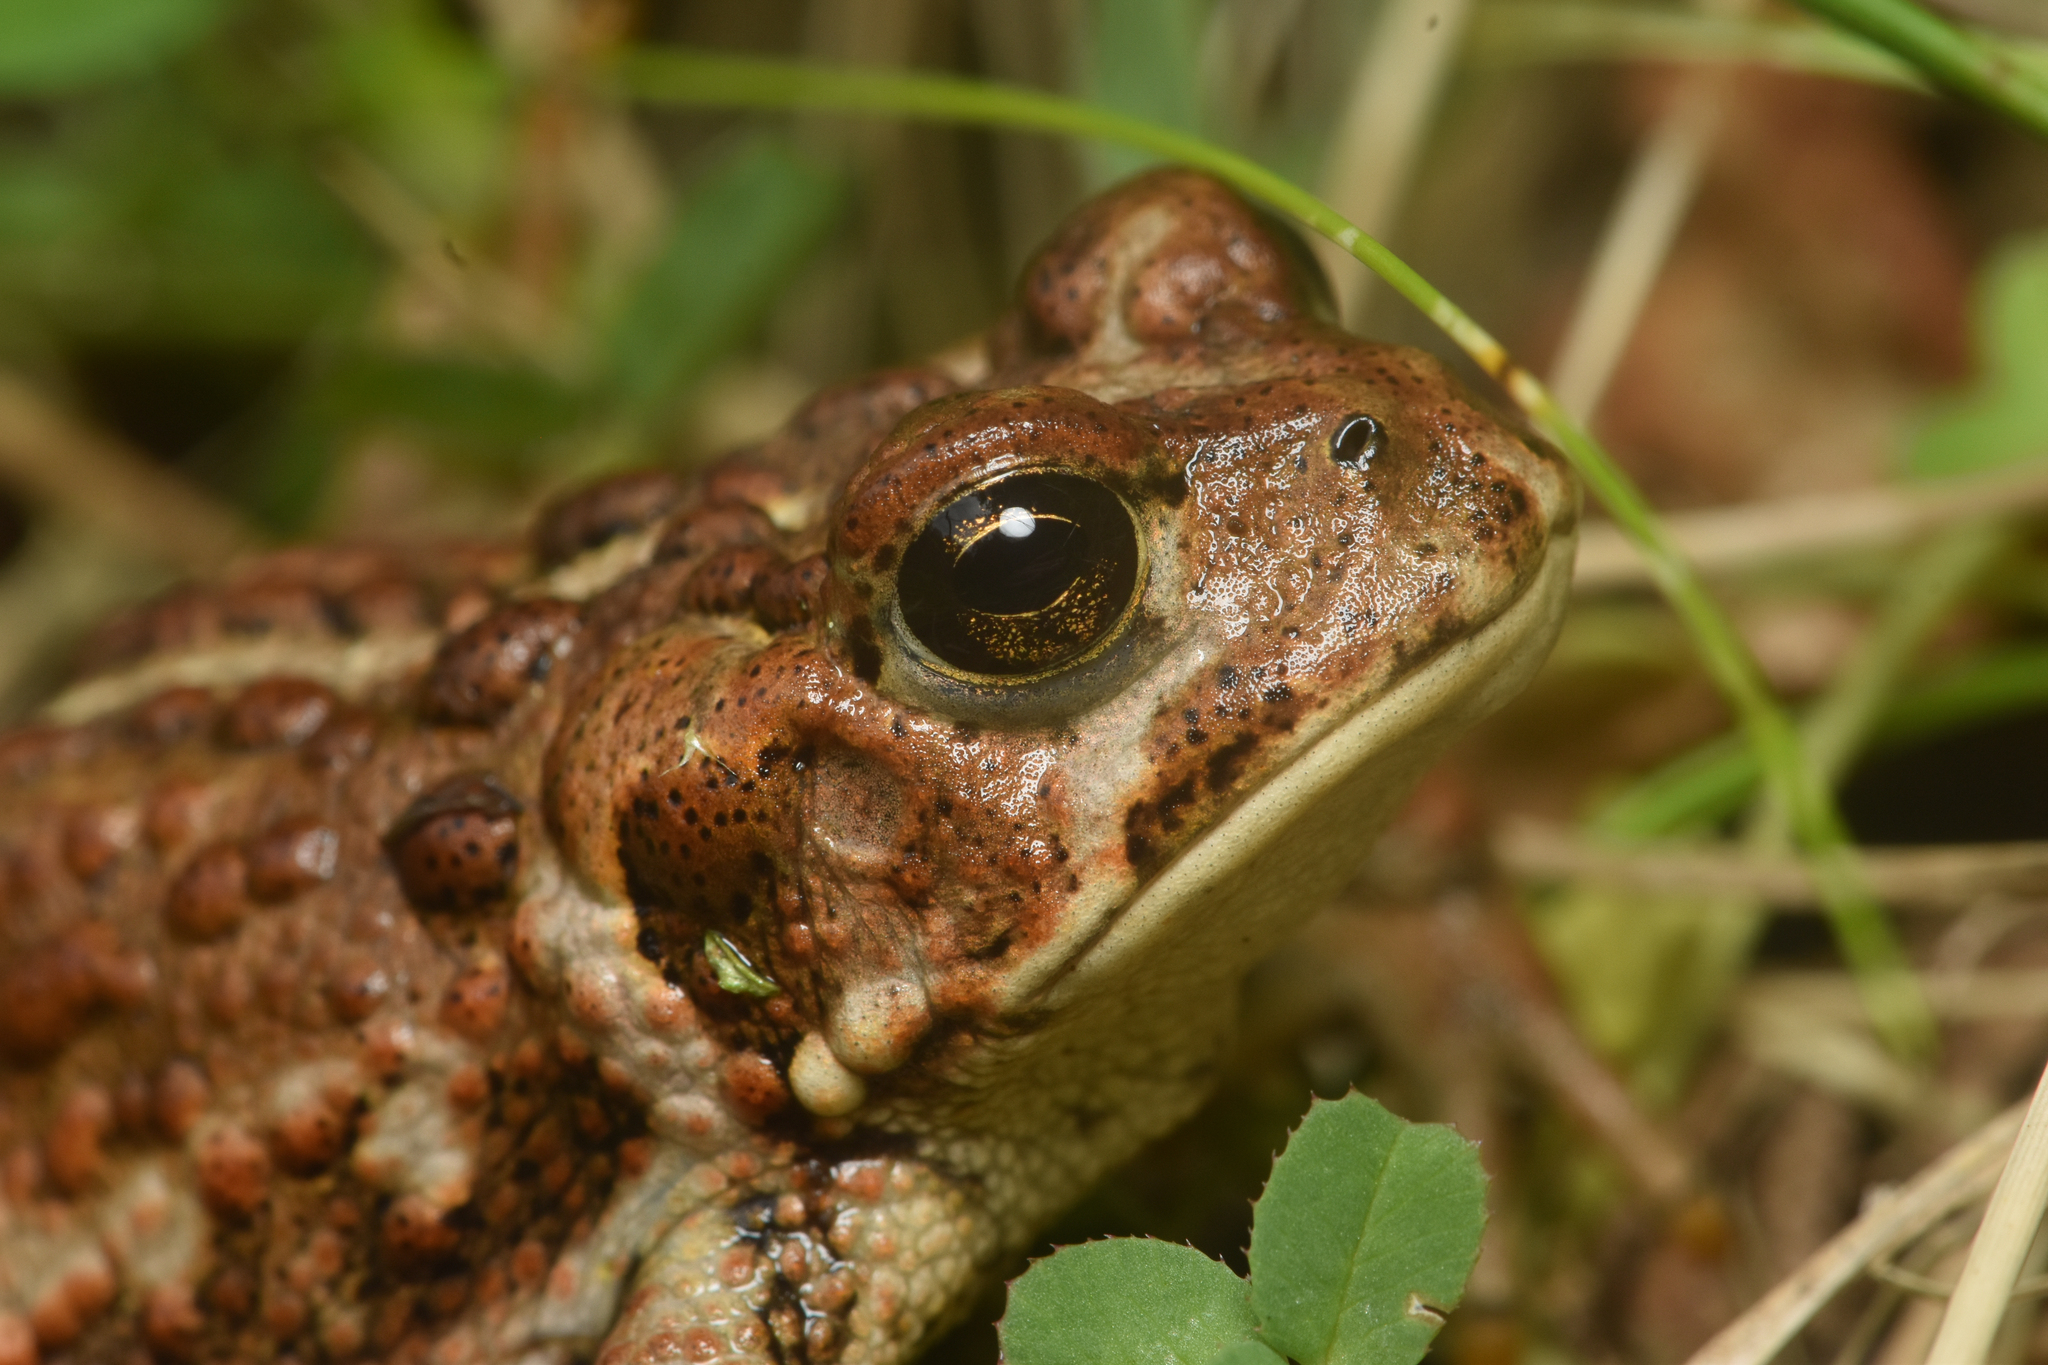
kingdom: Animalia
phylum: Chordata
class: Amphibia
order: Anura
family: Bufonidae
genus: Anaxyrus
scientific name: Anaxyrus boreas
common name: Western toad
